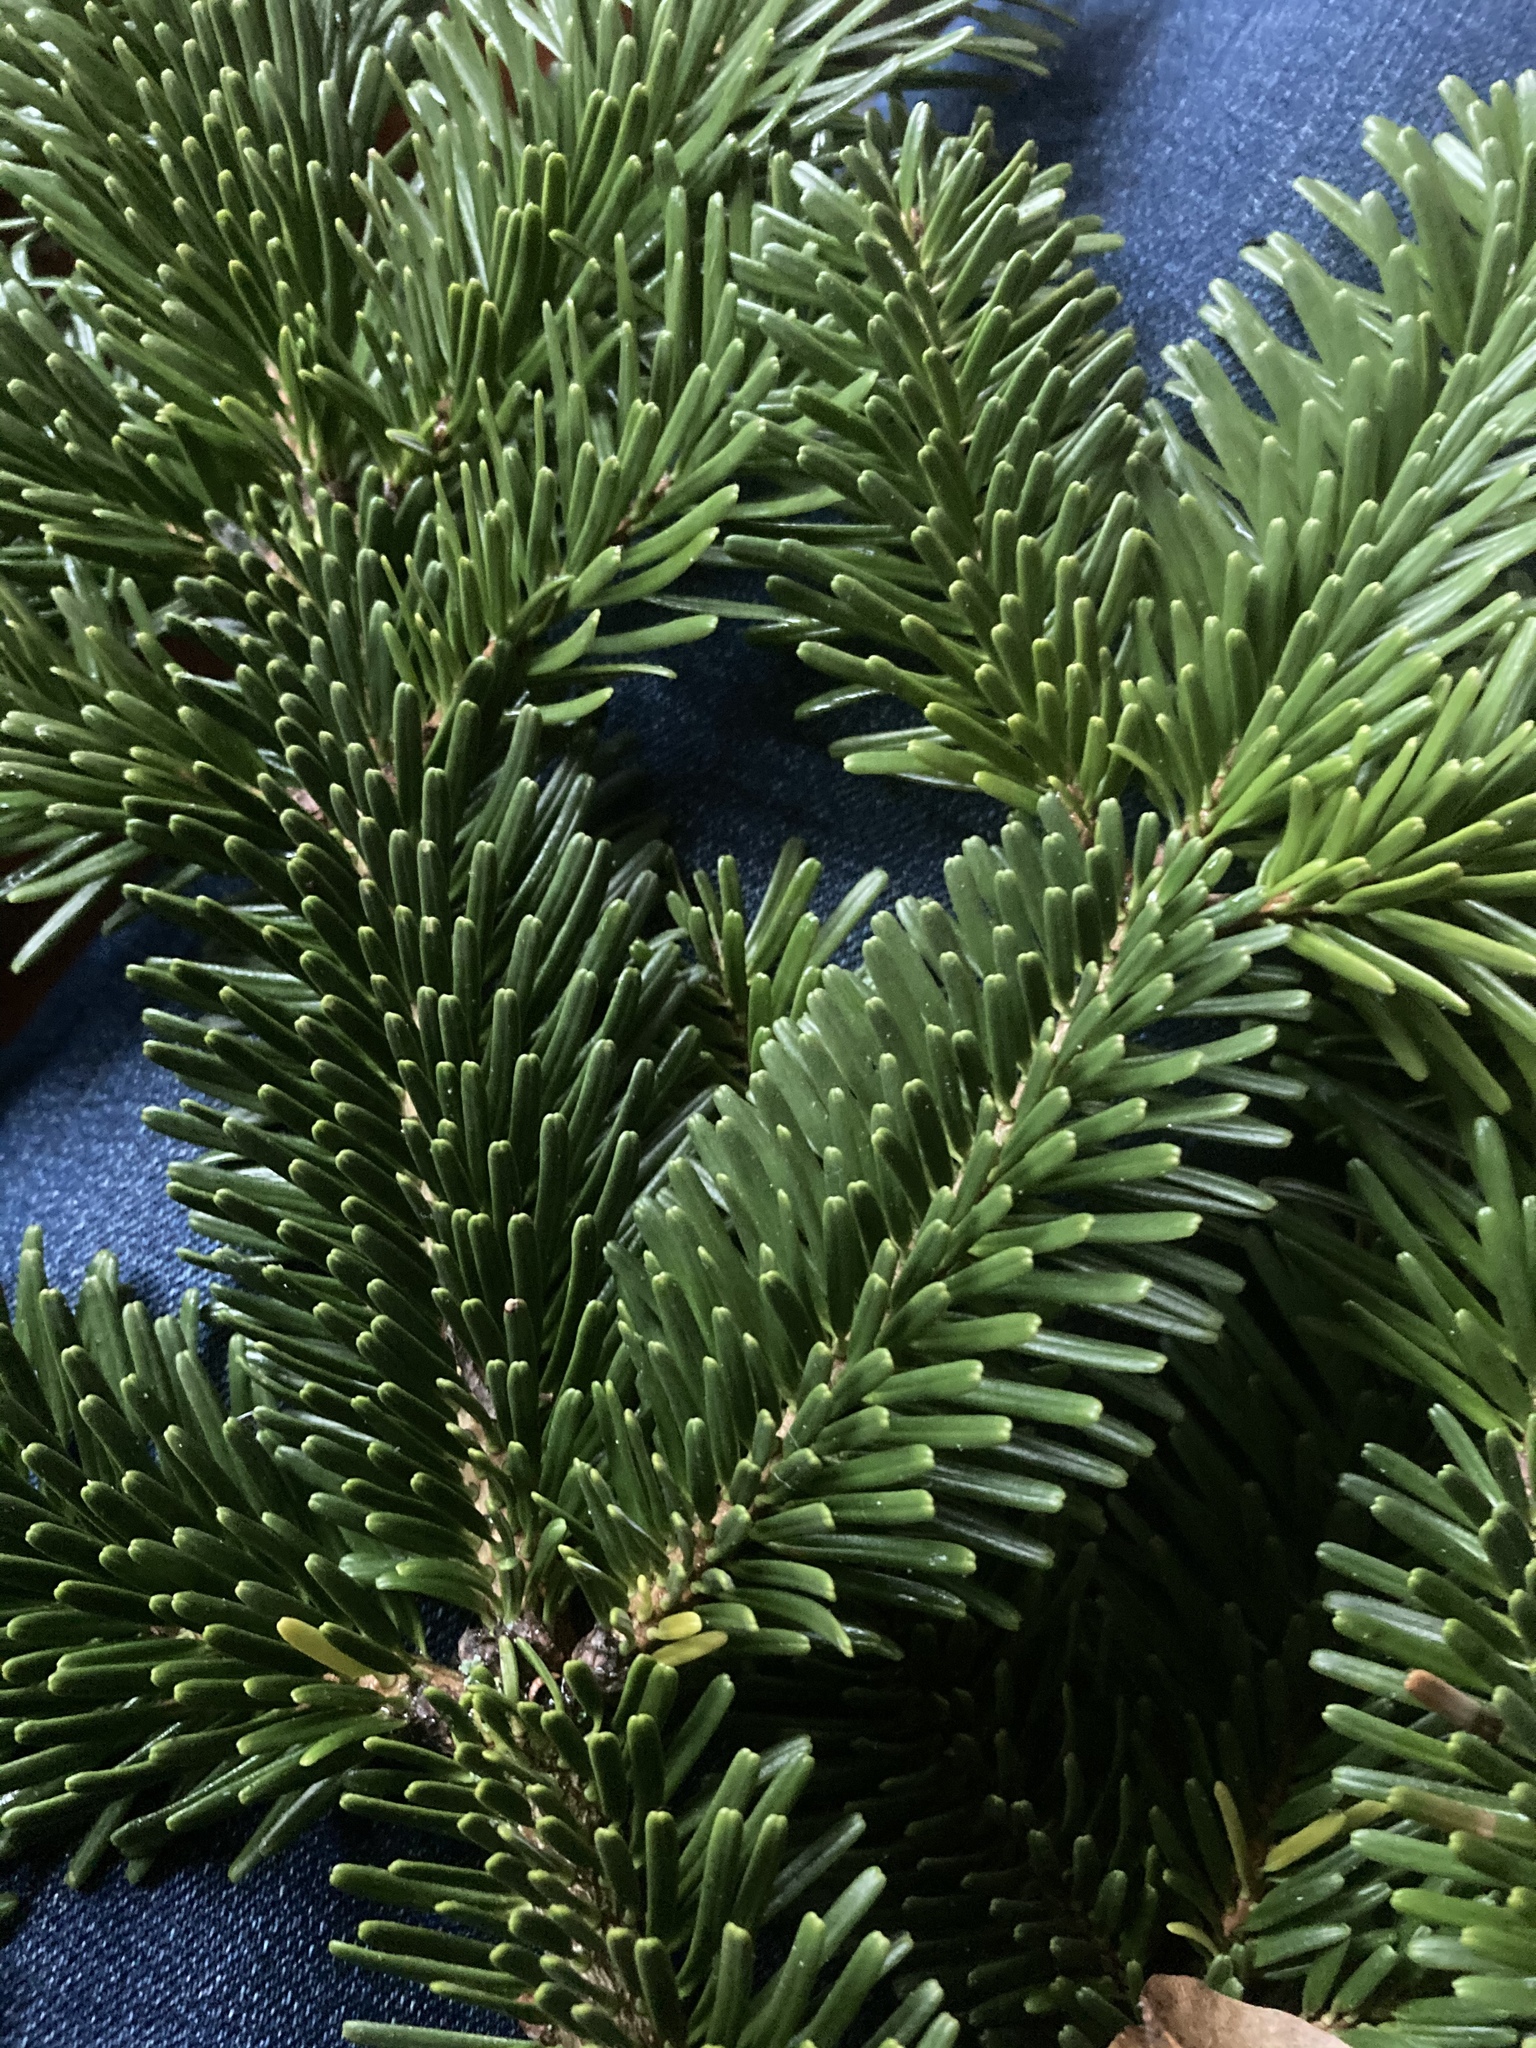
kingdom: Plantae
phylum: Tracheophyta
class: Pinopsida
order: Pinales
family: Pinaceae
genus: Abies
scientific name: Abies nordmanniana
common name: Caucasian fir
